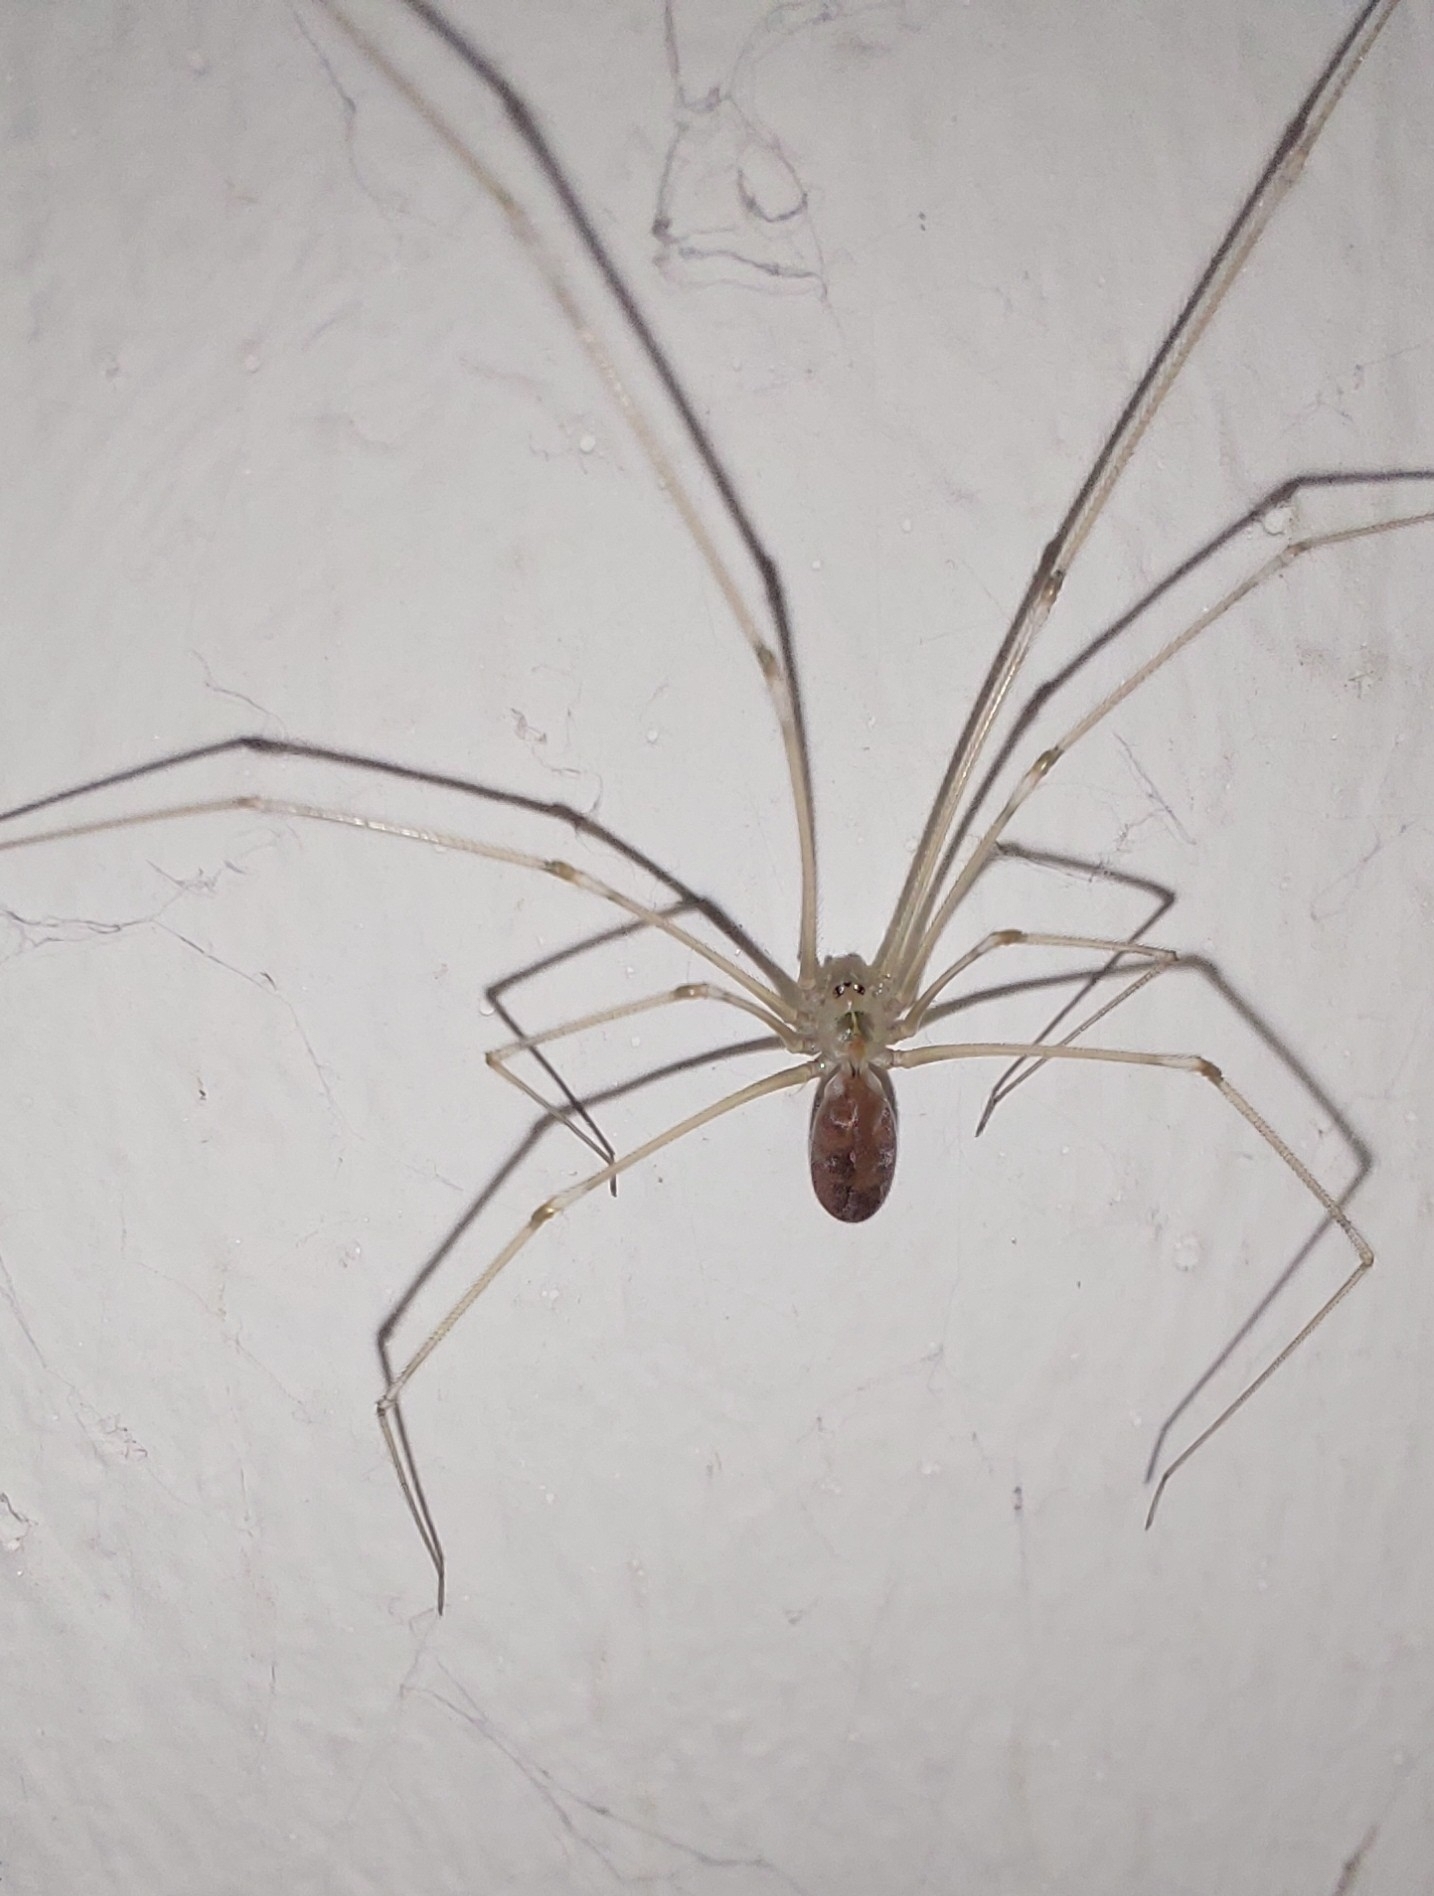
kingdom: Animalia
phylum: Arthropoda
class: Arachnida
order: Araneae
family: Pholcidae
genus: Pholcus
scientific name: Pholcus phalangioides
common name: Longbodied cellar spider
